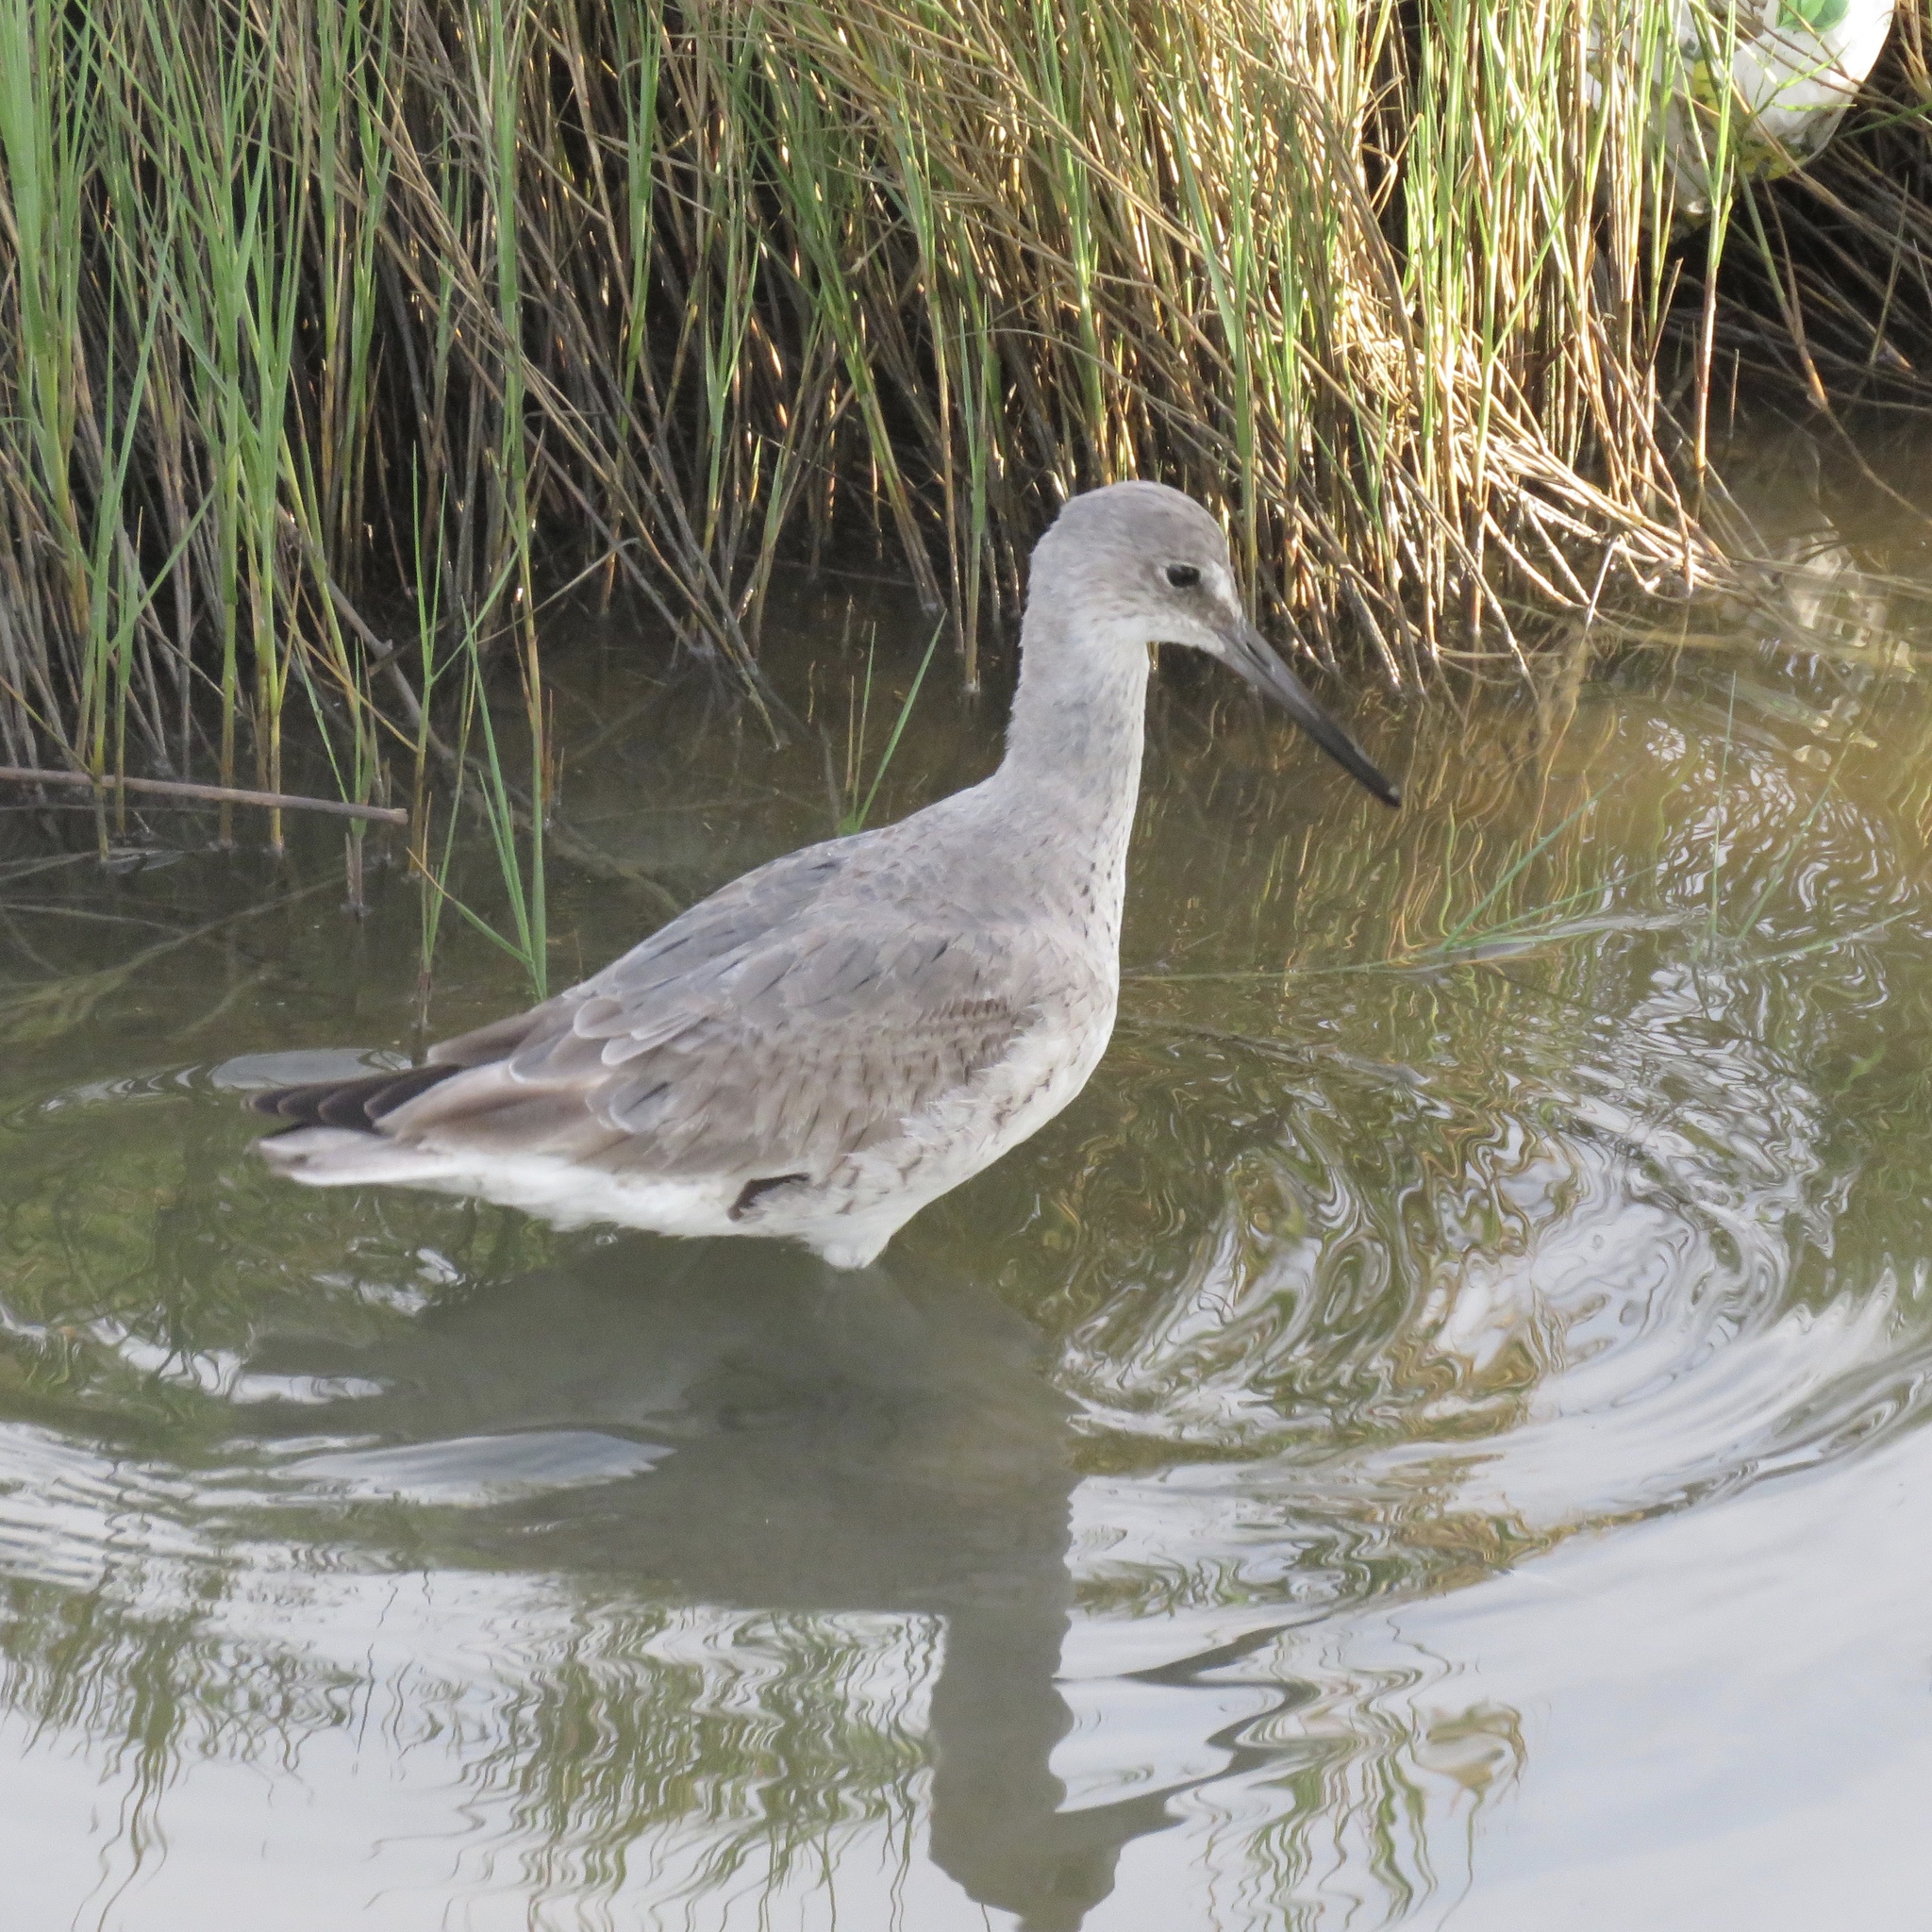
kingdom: Animalia
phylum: Chordata
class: Aves
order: Charadriiformes
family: Scolopacidae
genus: Tringa
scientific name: Tringa semipalmata
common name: Willet
